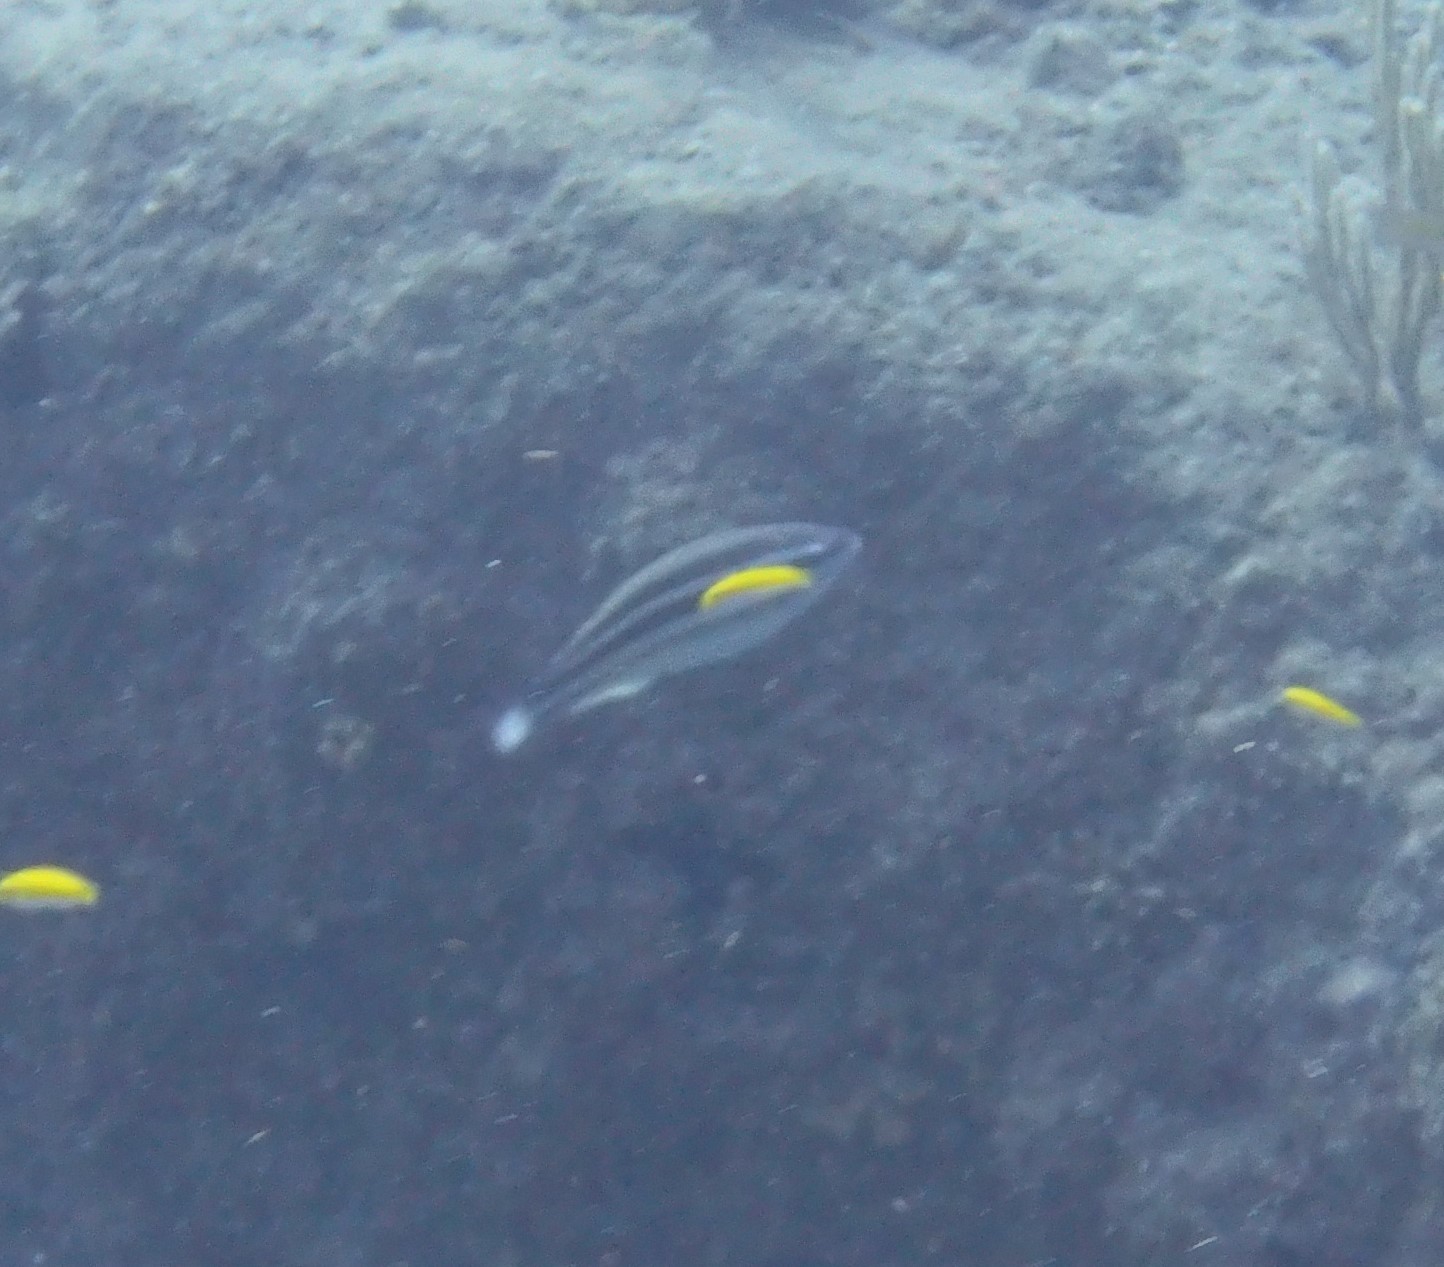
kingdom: Animalia
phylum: Chordata
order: Perciformes
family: Scaridae
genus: Scarus
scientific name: Scarus iseri
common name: Striped parrotfish
